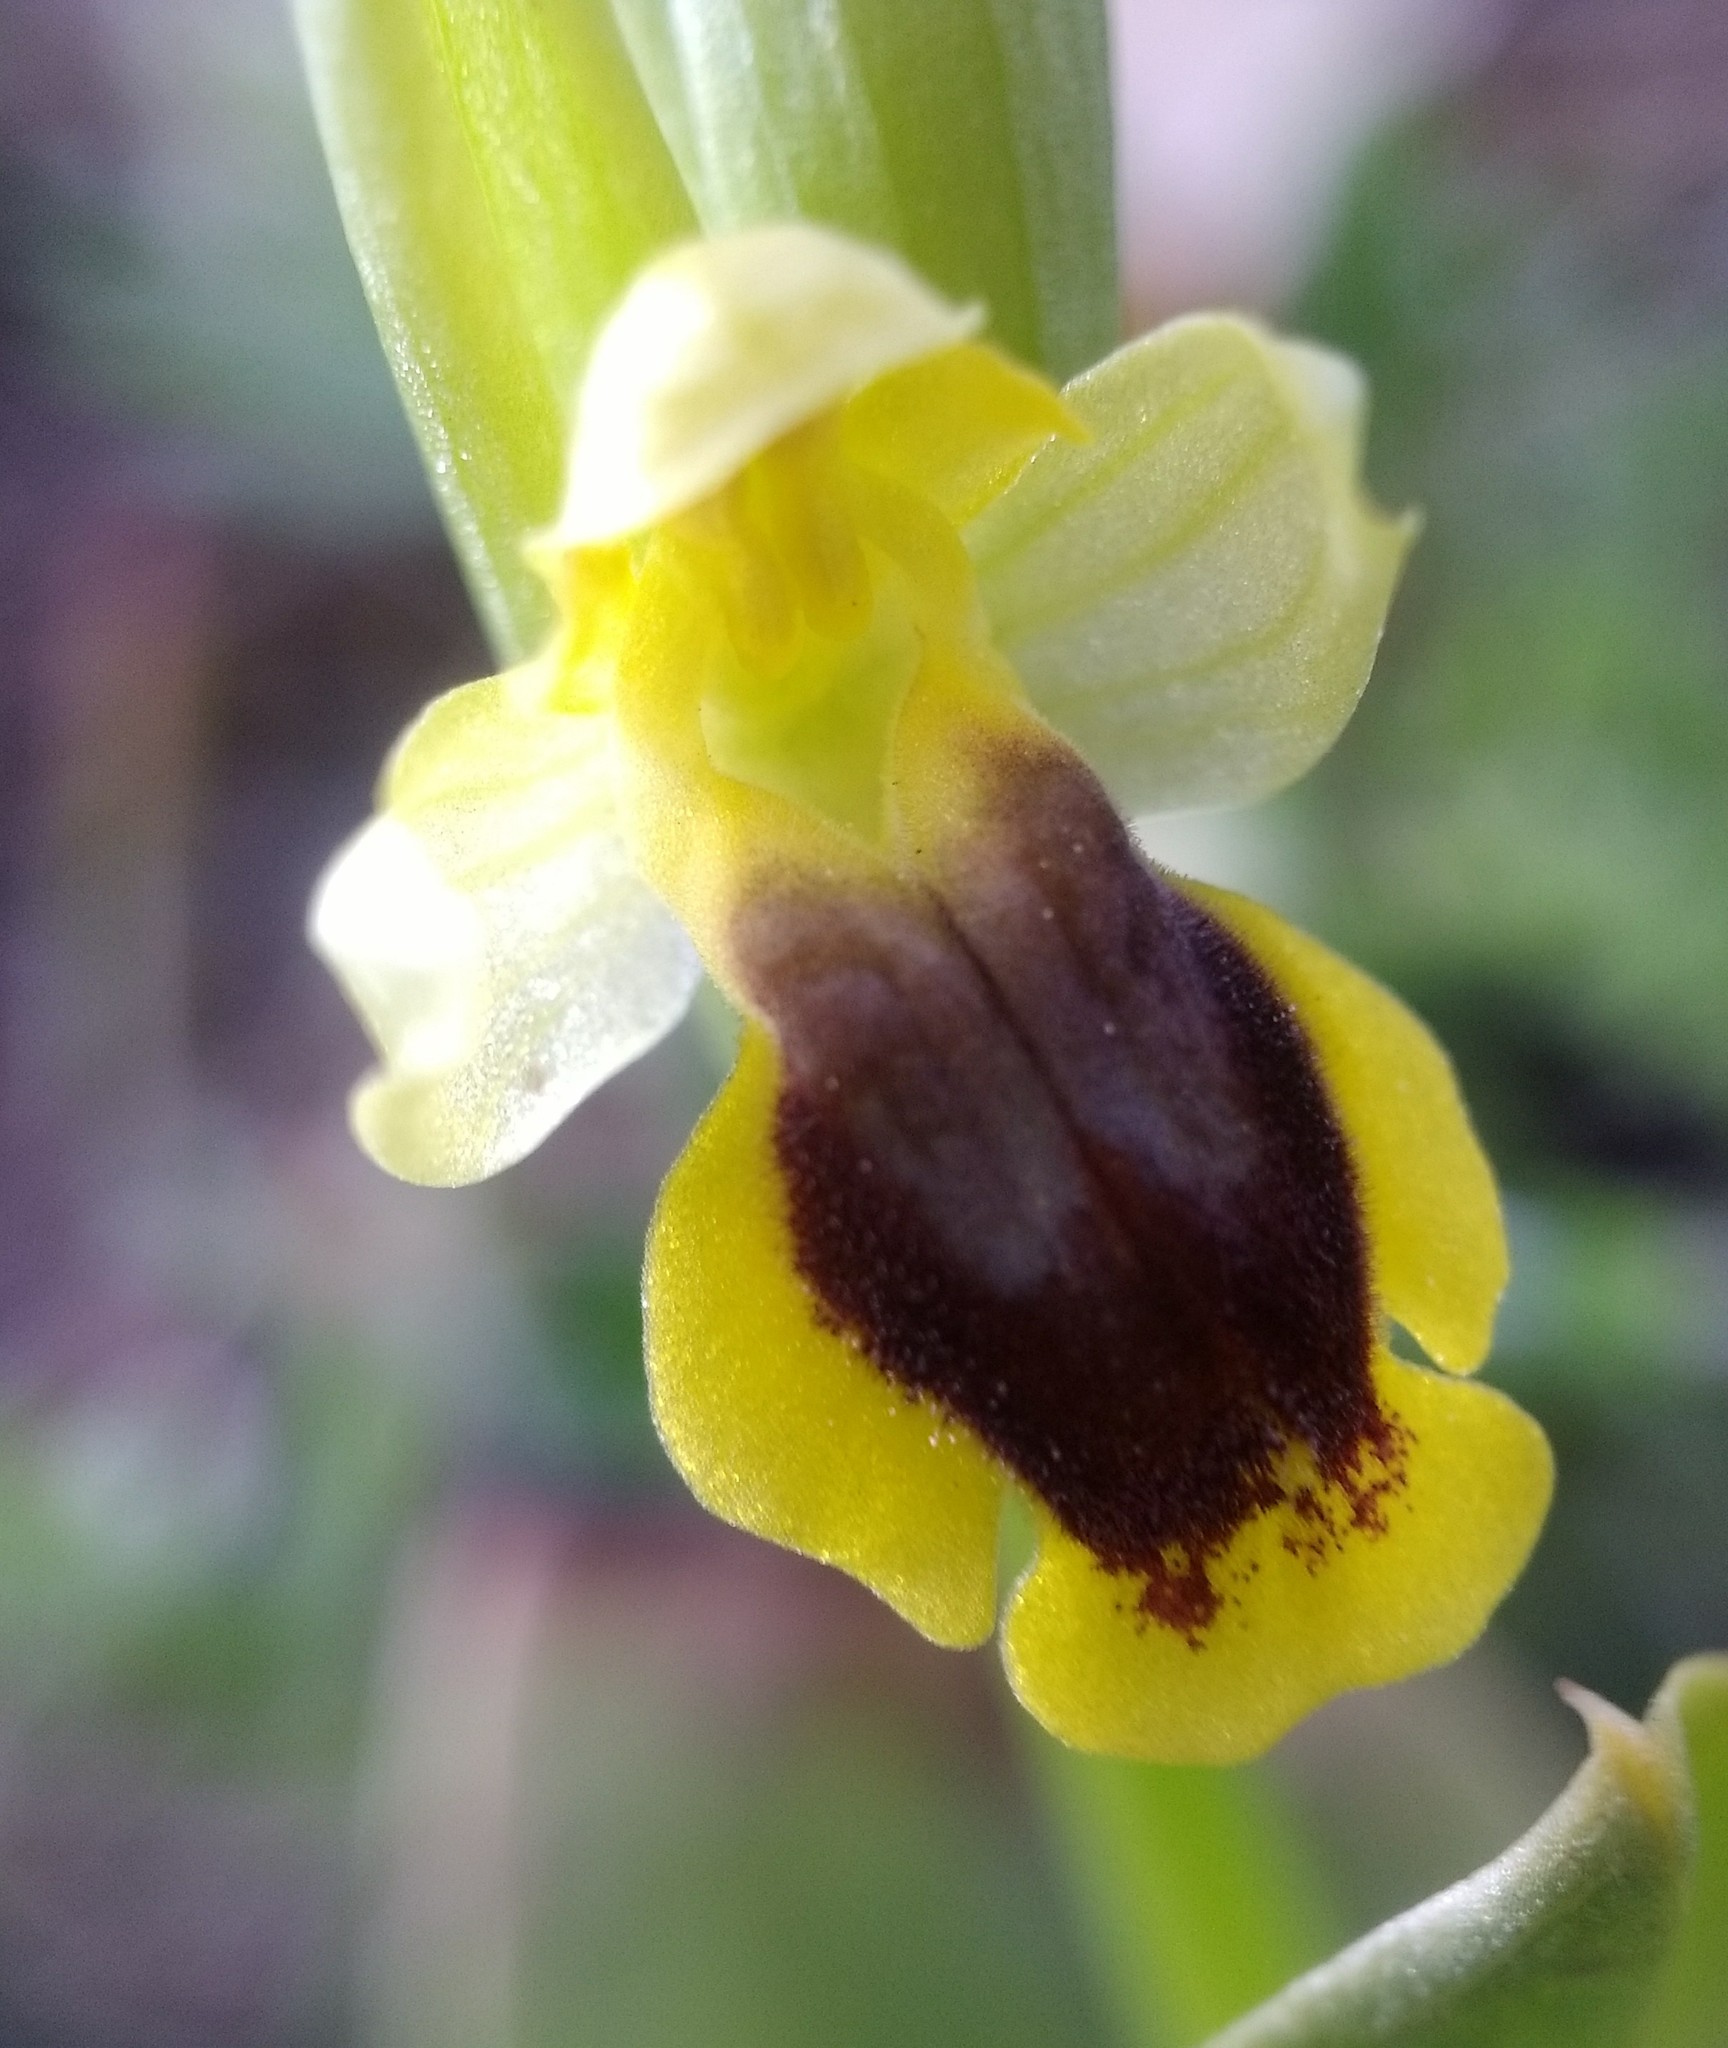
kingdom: Plantae
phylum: Tracheophyta
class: Liliopsida
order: Asparagales
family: Orchidaceae
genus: Ophrys
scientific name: Ophrys lutea
